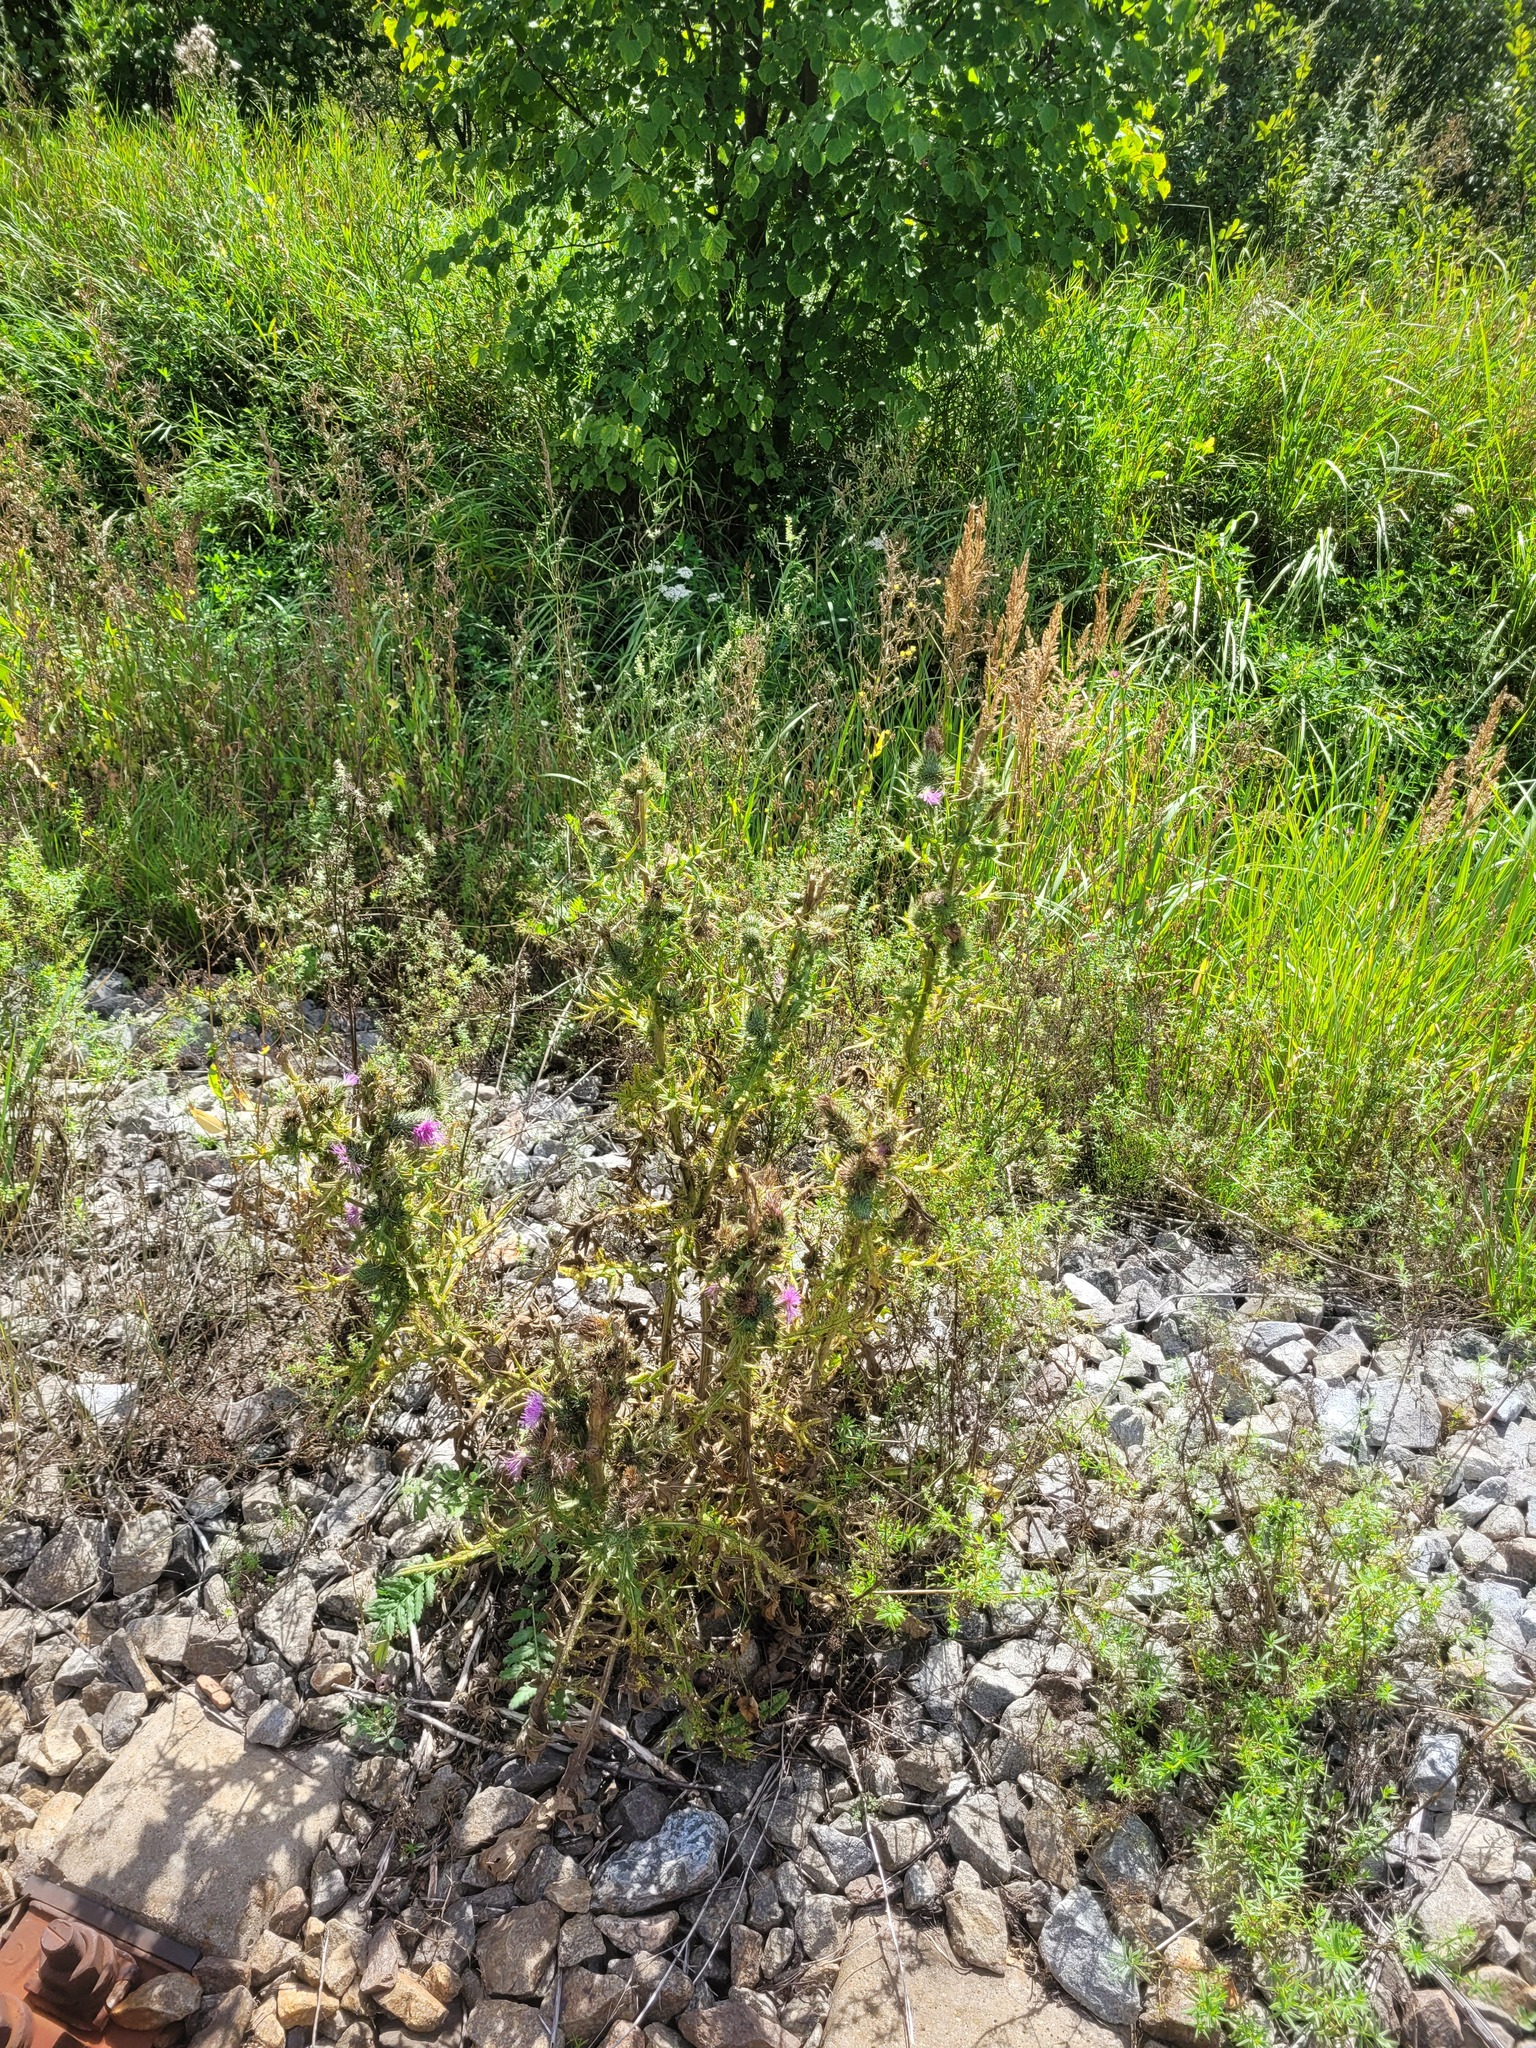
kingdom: Plantae
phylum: Tracheophyta
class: Magnoliopsida
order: Asterales
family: Asteraceae
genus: Cirsium
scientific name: Cirsium vulgare
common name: Bull thistle
